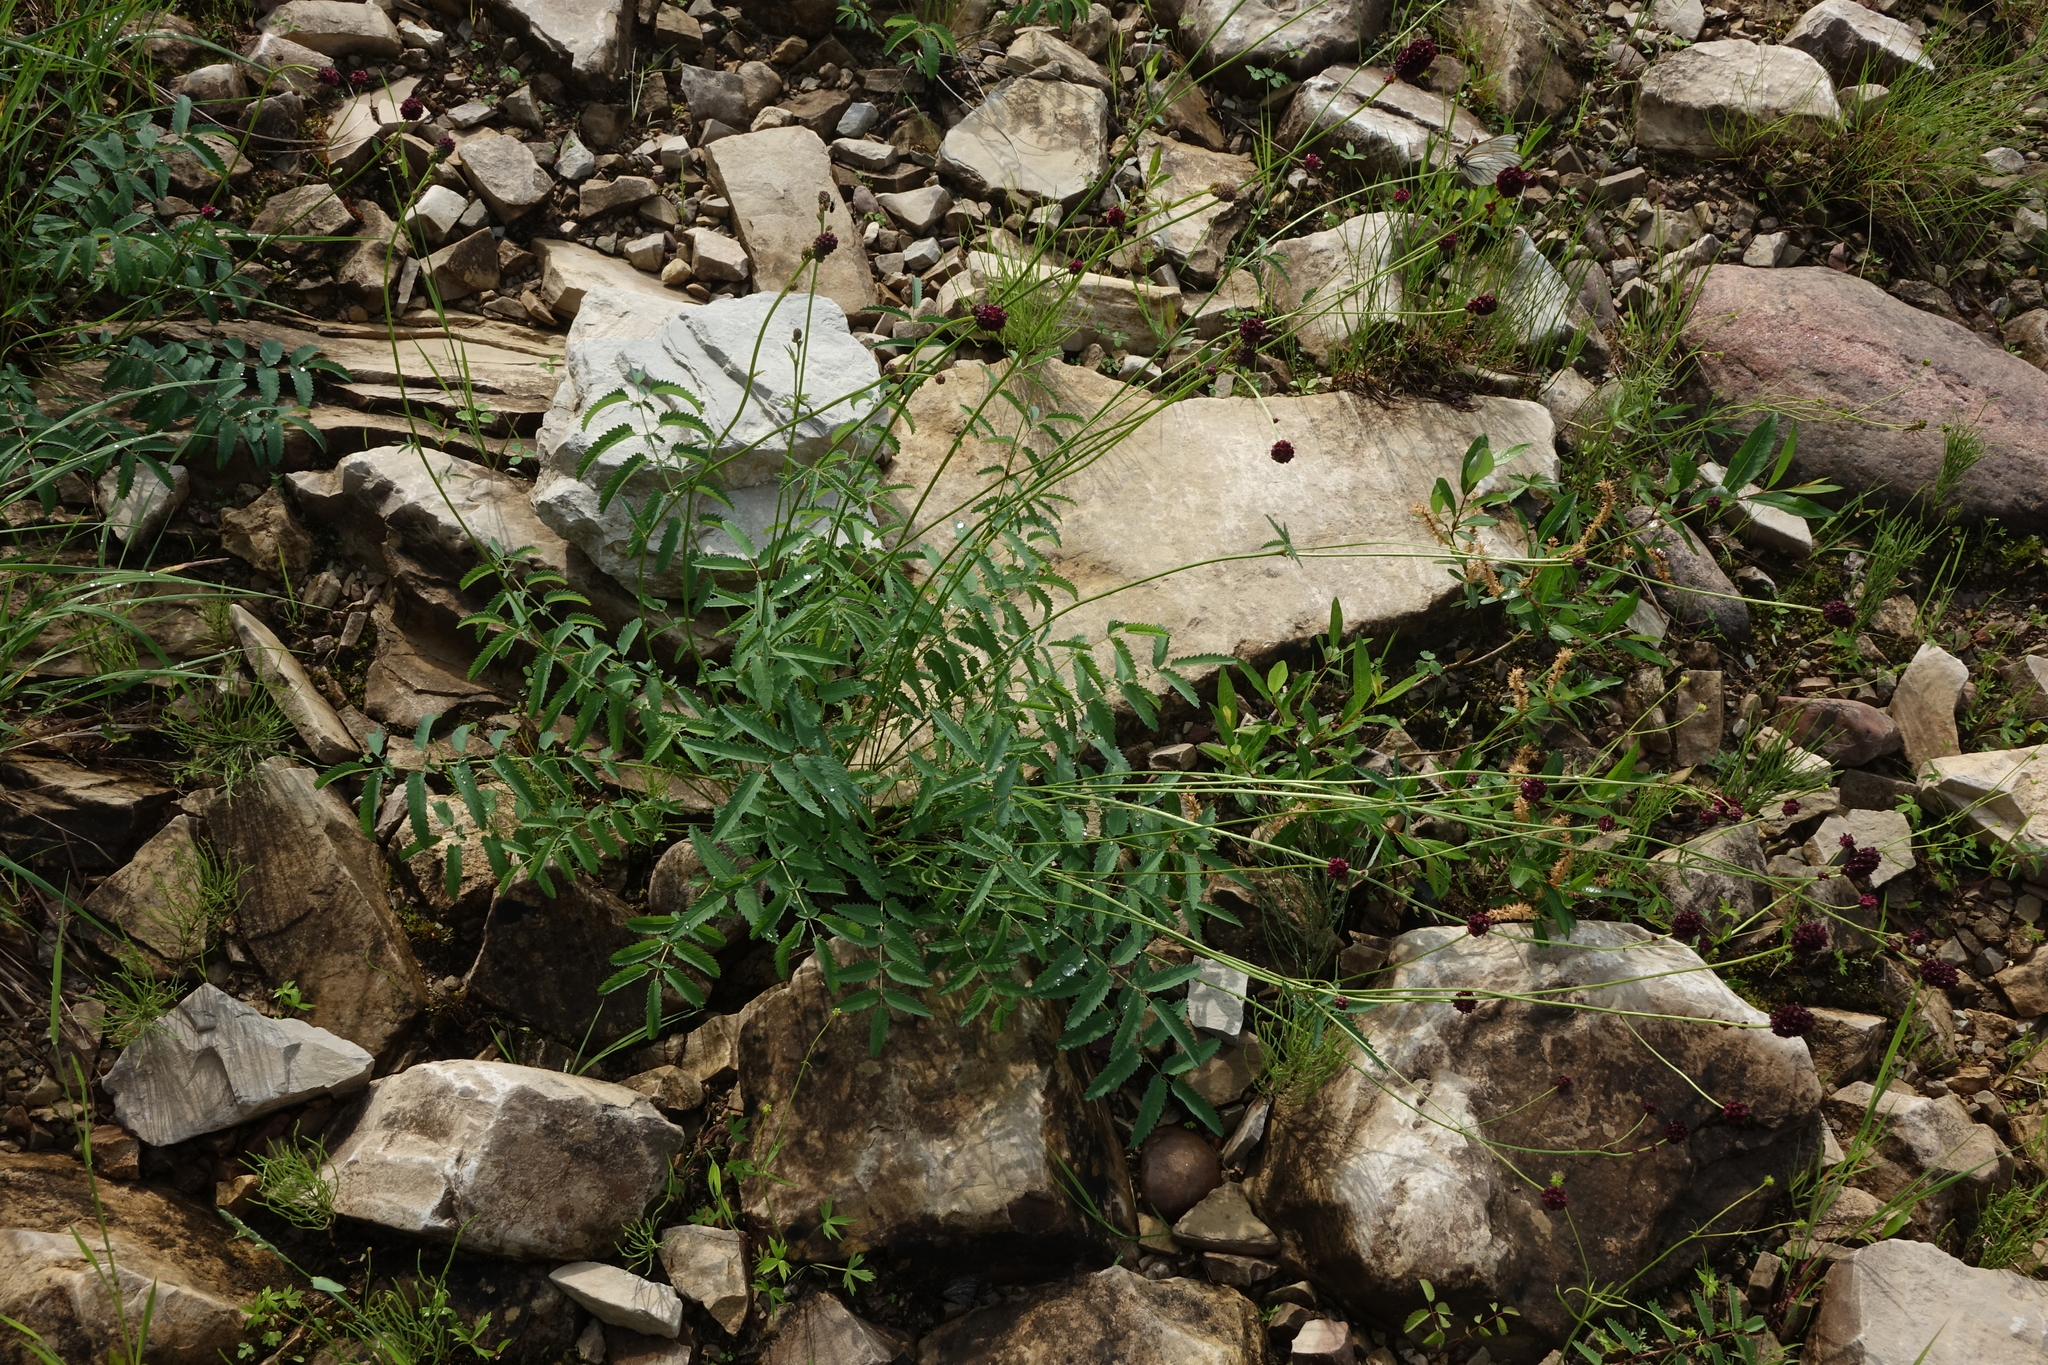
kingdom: Plantae
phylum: Tracheophyta
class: Magnoliopsida
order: Rosales
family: Rosaceae
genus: Sanguisorba
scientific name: Sanguisorba officinalis
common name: Great burnet
